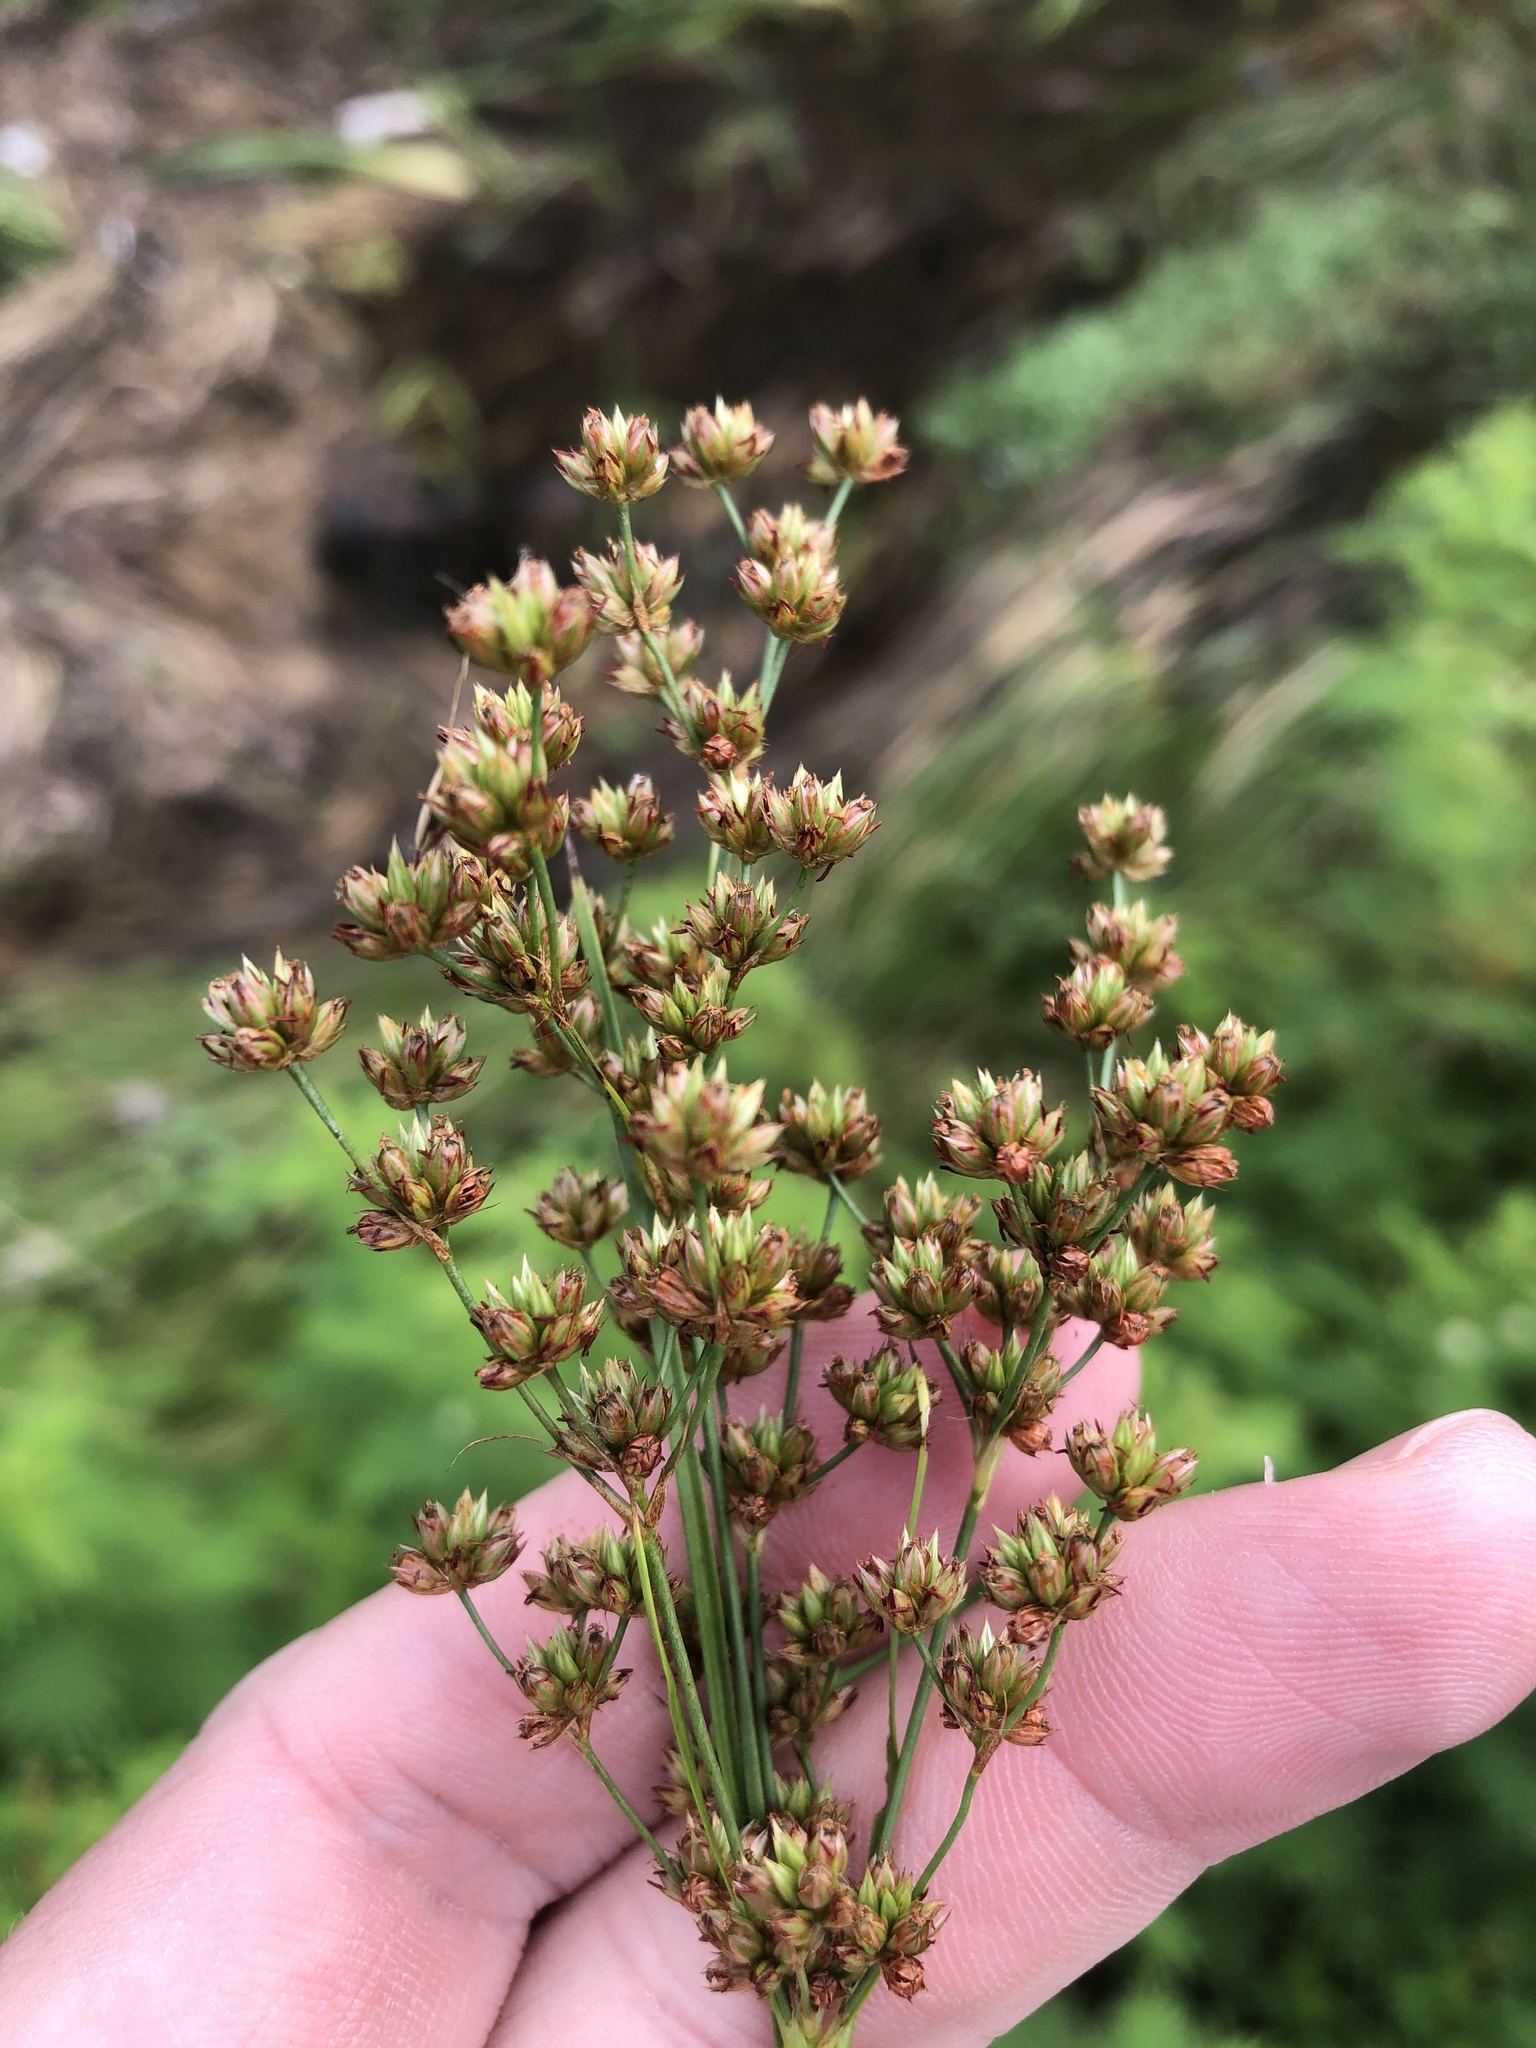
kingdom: Plantae
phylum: Tracheophyta
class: Liliopsida
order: Poales
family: Juncaceae
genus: Juncus
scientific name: Juncus marginatus
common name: Grass-leaf rush
